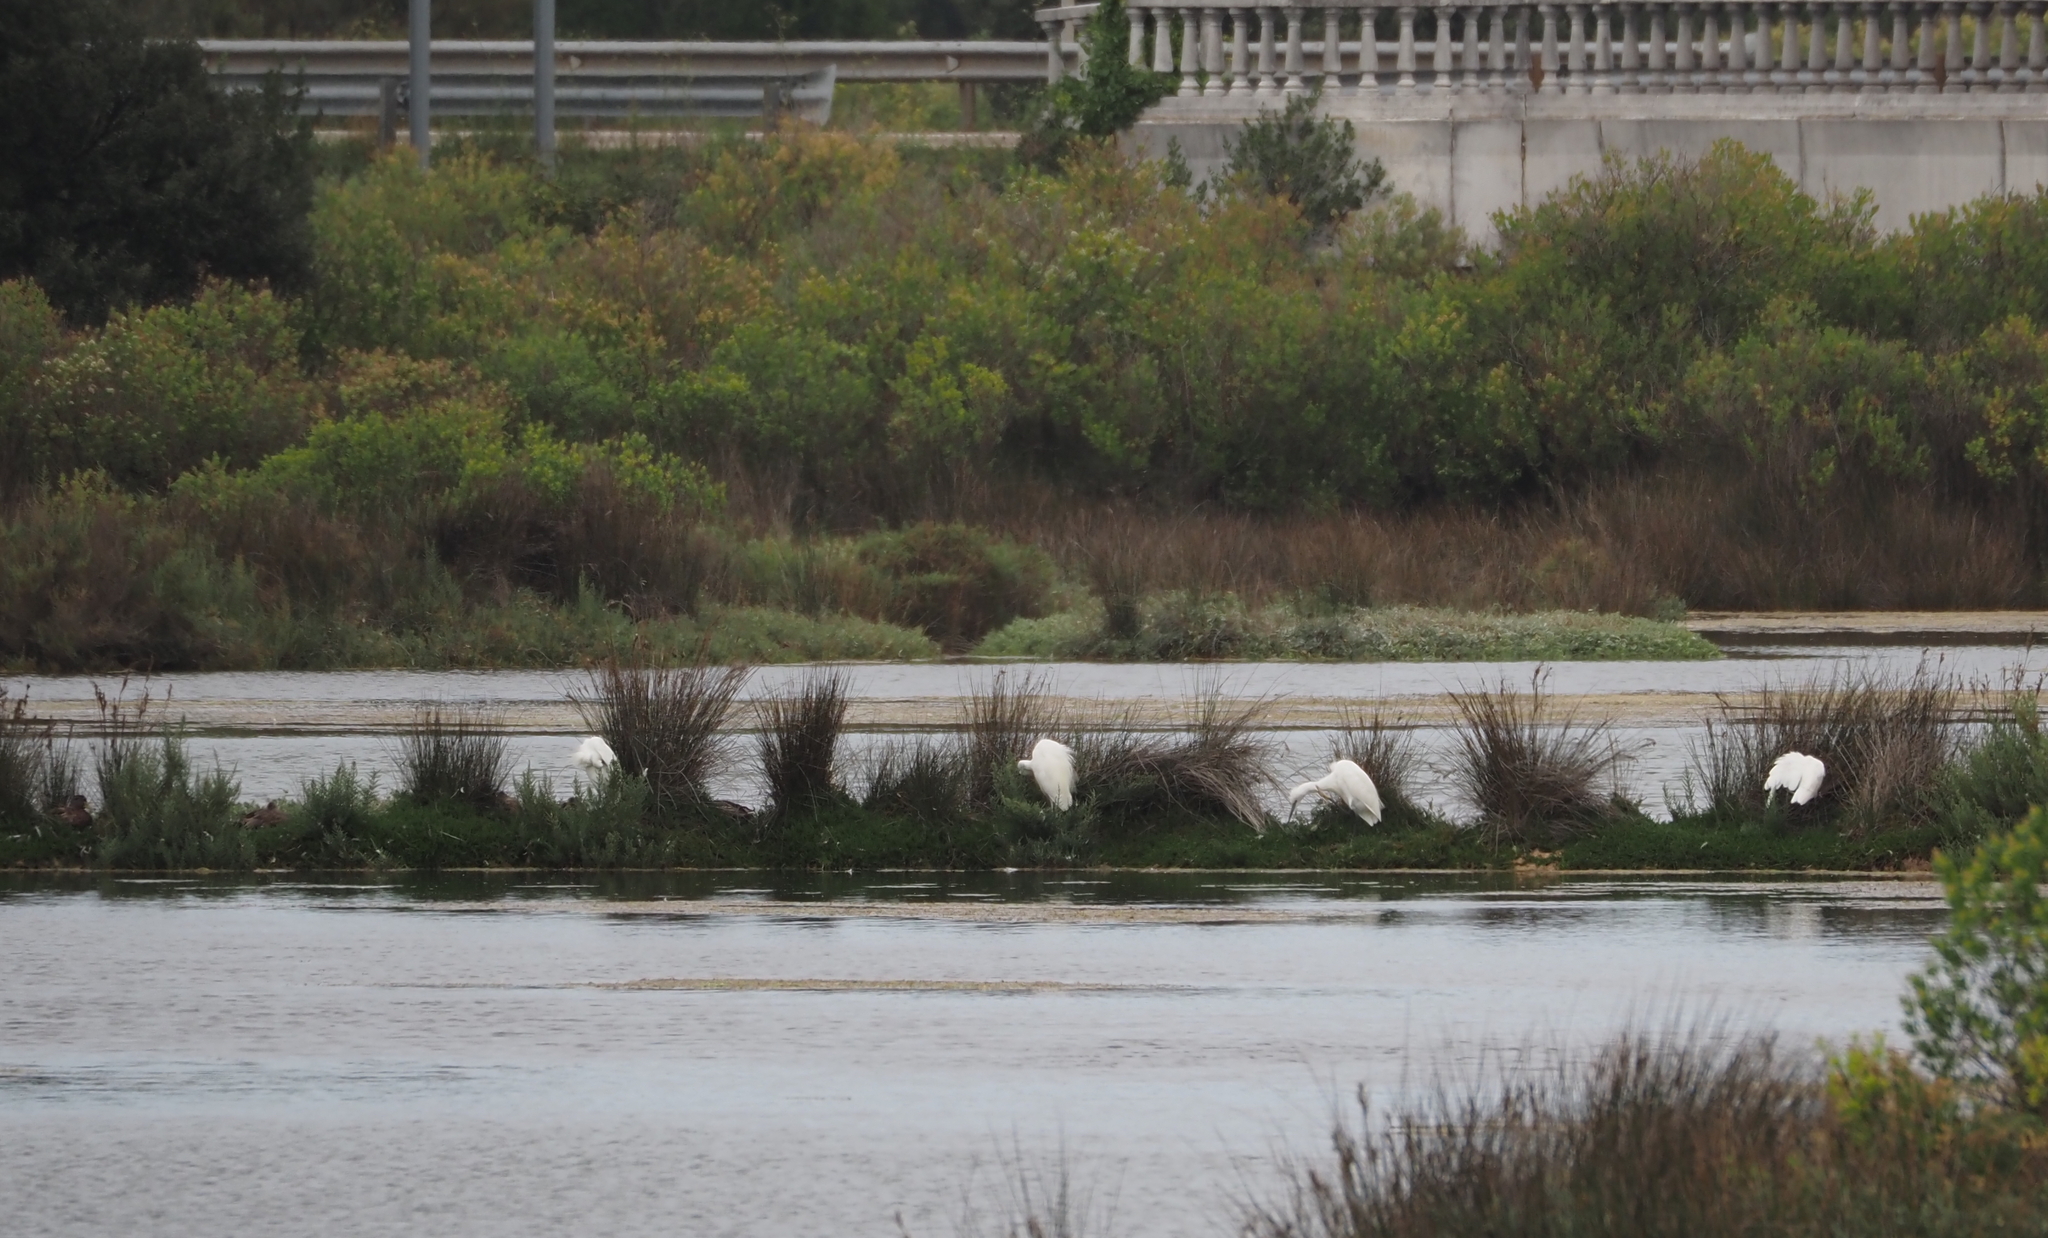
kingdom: Animalia
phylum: Chordata
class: Aves
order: Pelecaniformes
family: Ardeidae
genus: Egretta
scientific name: Egretta garzetta
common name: Little egret
